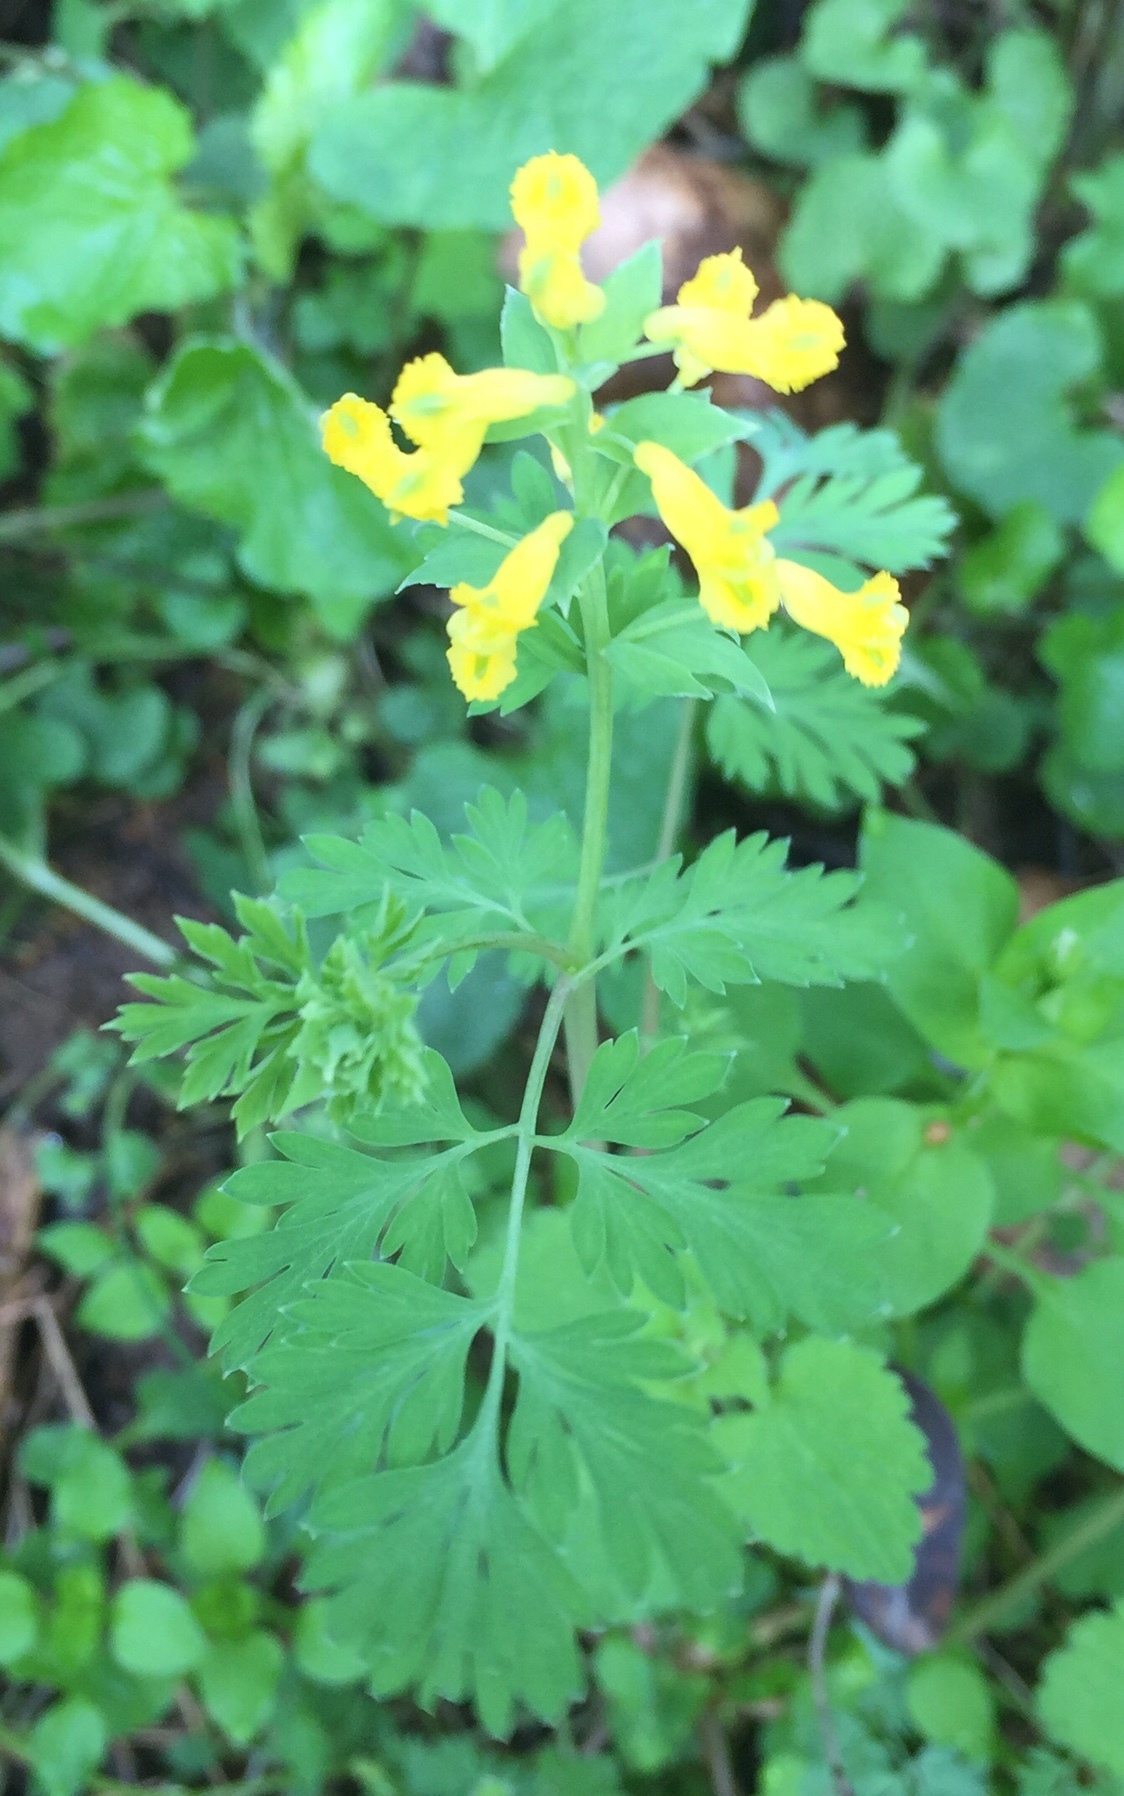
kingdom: Plantae
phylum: Tracheophyta
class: Magnoliopsida
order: Ranunculales
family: Papaveraceae
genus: Corydalis
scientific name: Corydalis flavula
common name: Yellow corydalis
